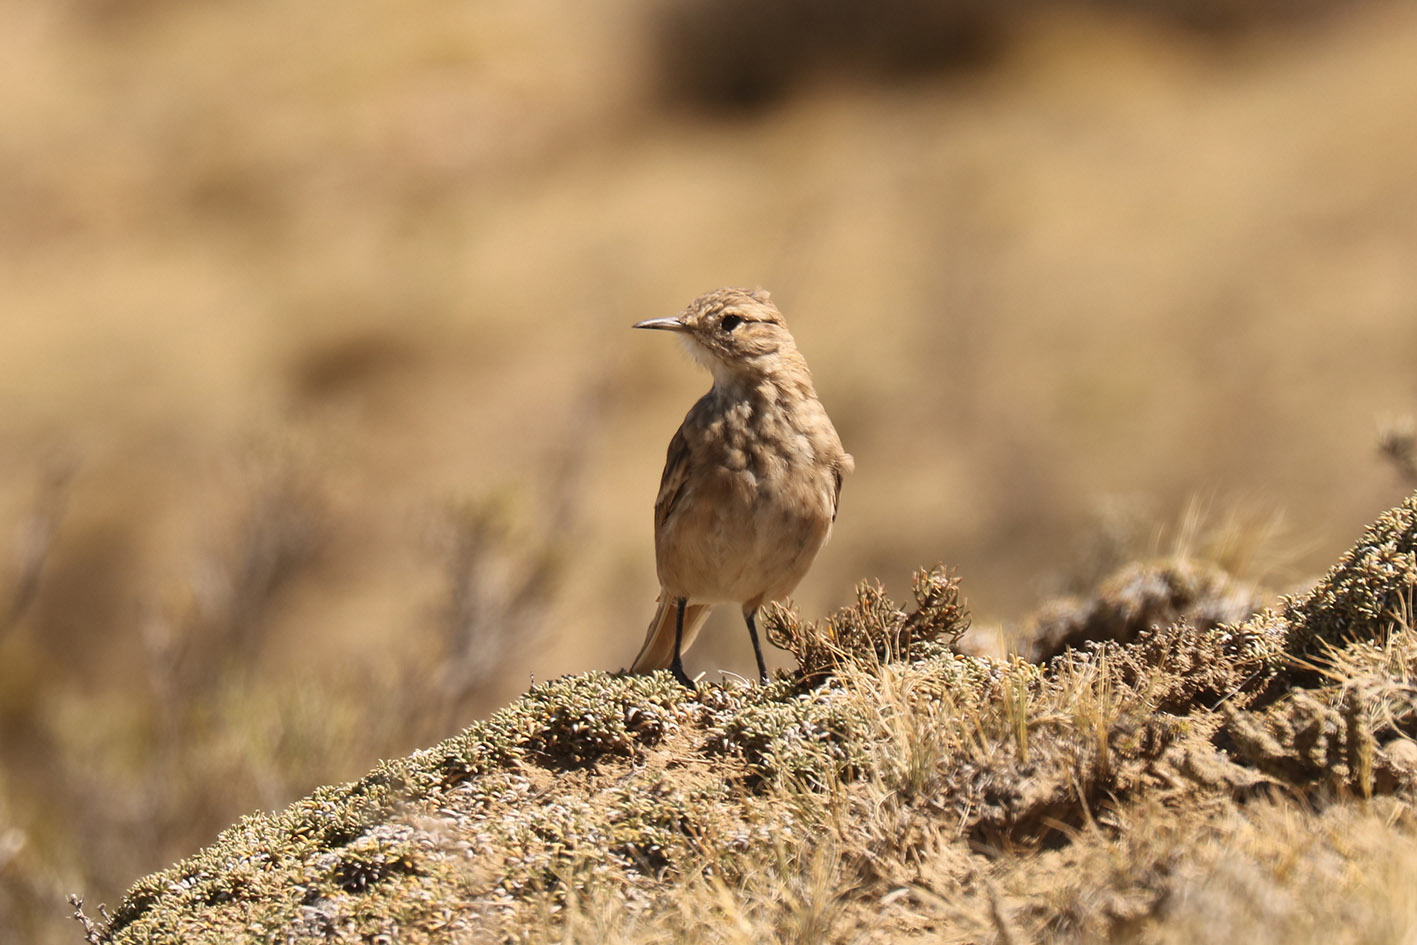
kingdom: Animalia
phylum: Chordata
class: Aves
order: Passeriformes
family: Furnariidae
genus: Geositta
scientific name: Geositta cunicularia
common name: Common miner
